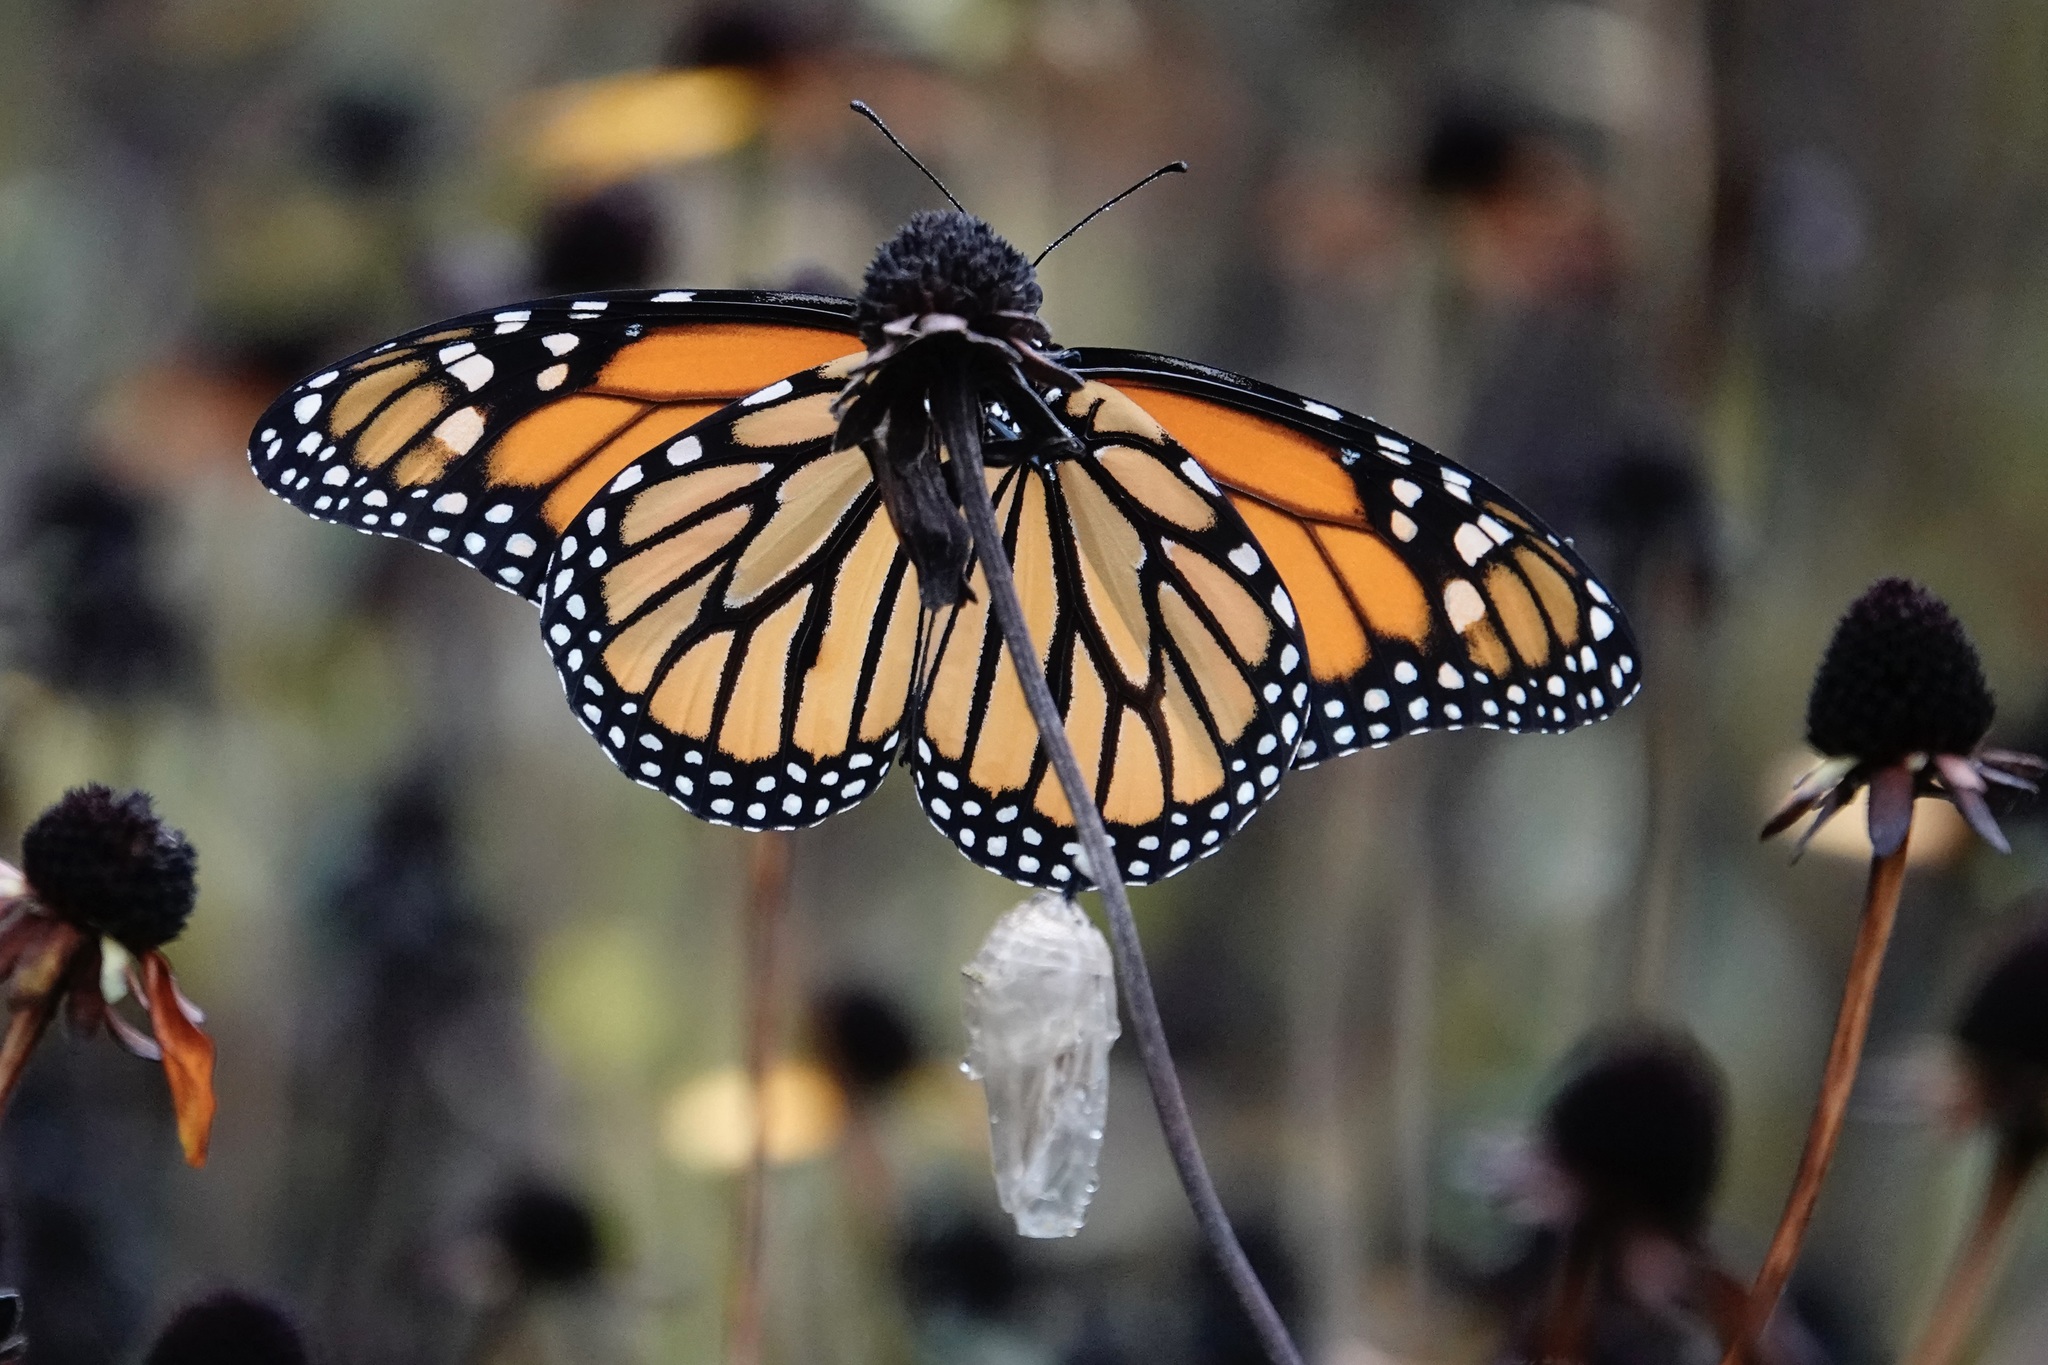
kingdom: Animalia
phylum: Arthropoda
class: Insecta
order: Lepidoptera
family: Nymphalidae
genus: Danaus
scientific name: Danaus plexippus
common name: Monarch
